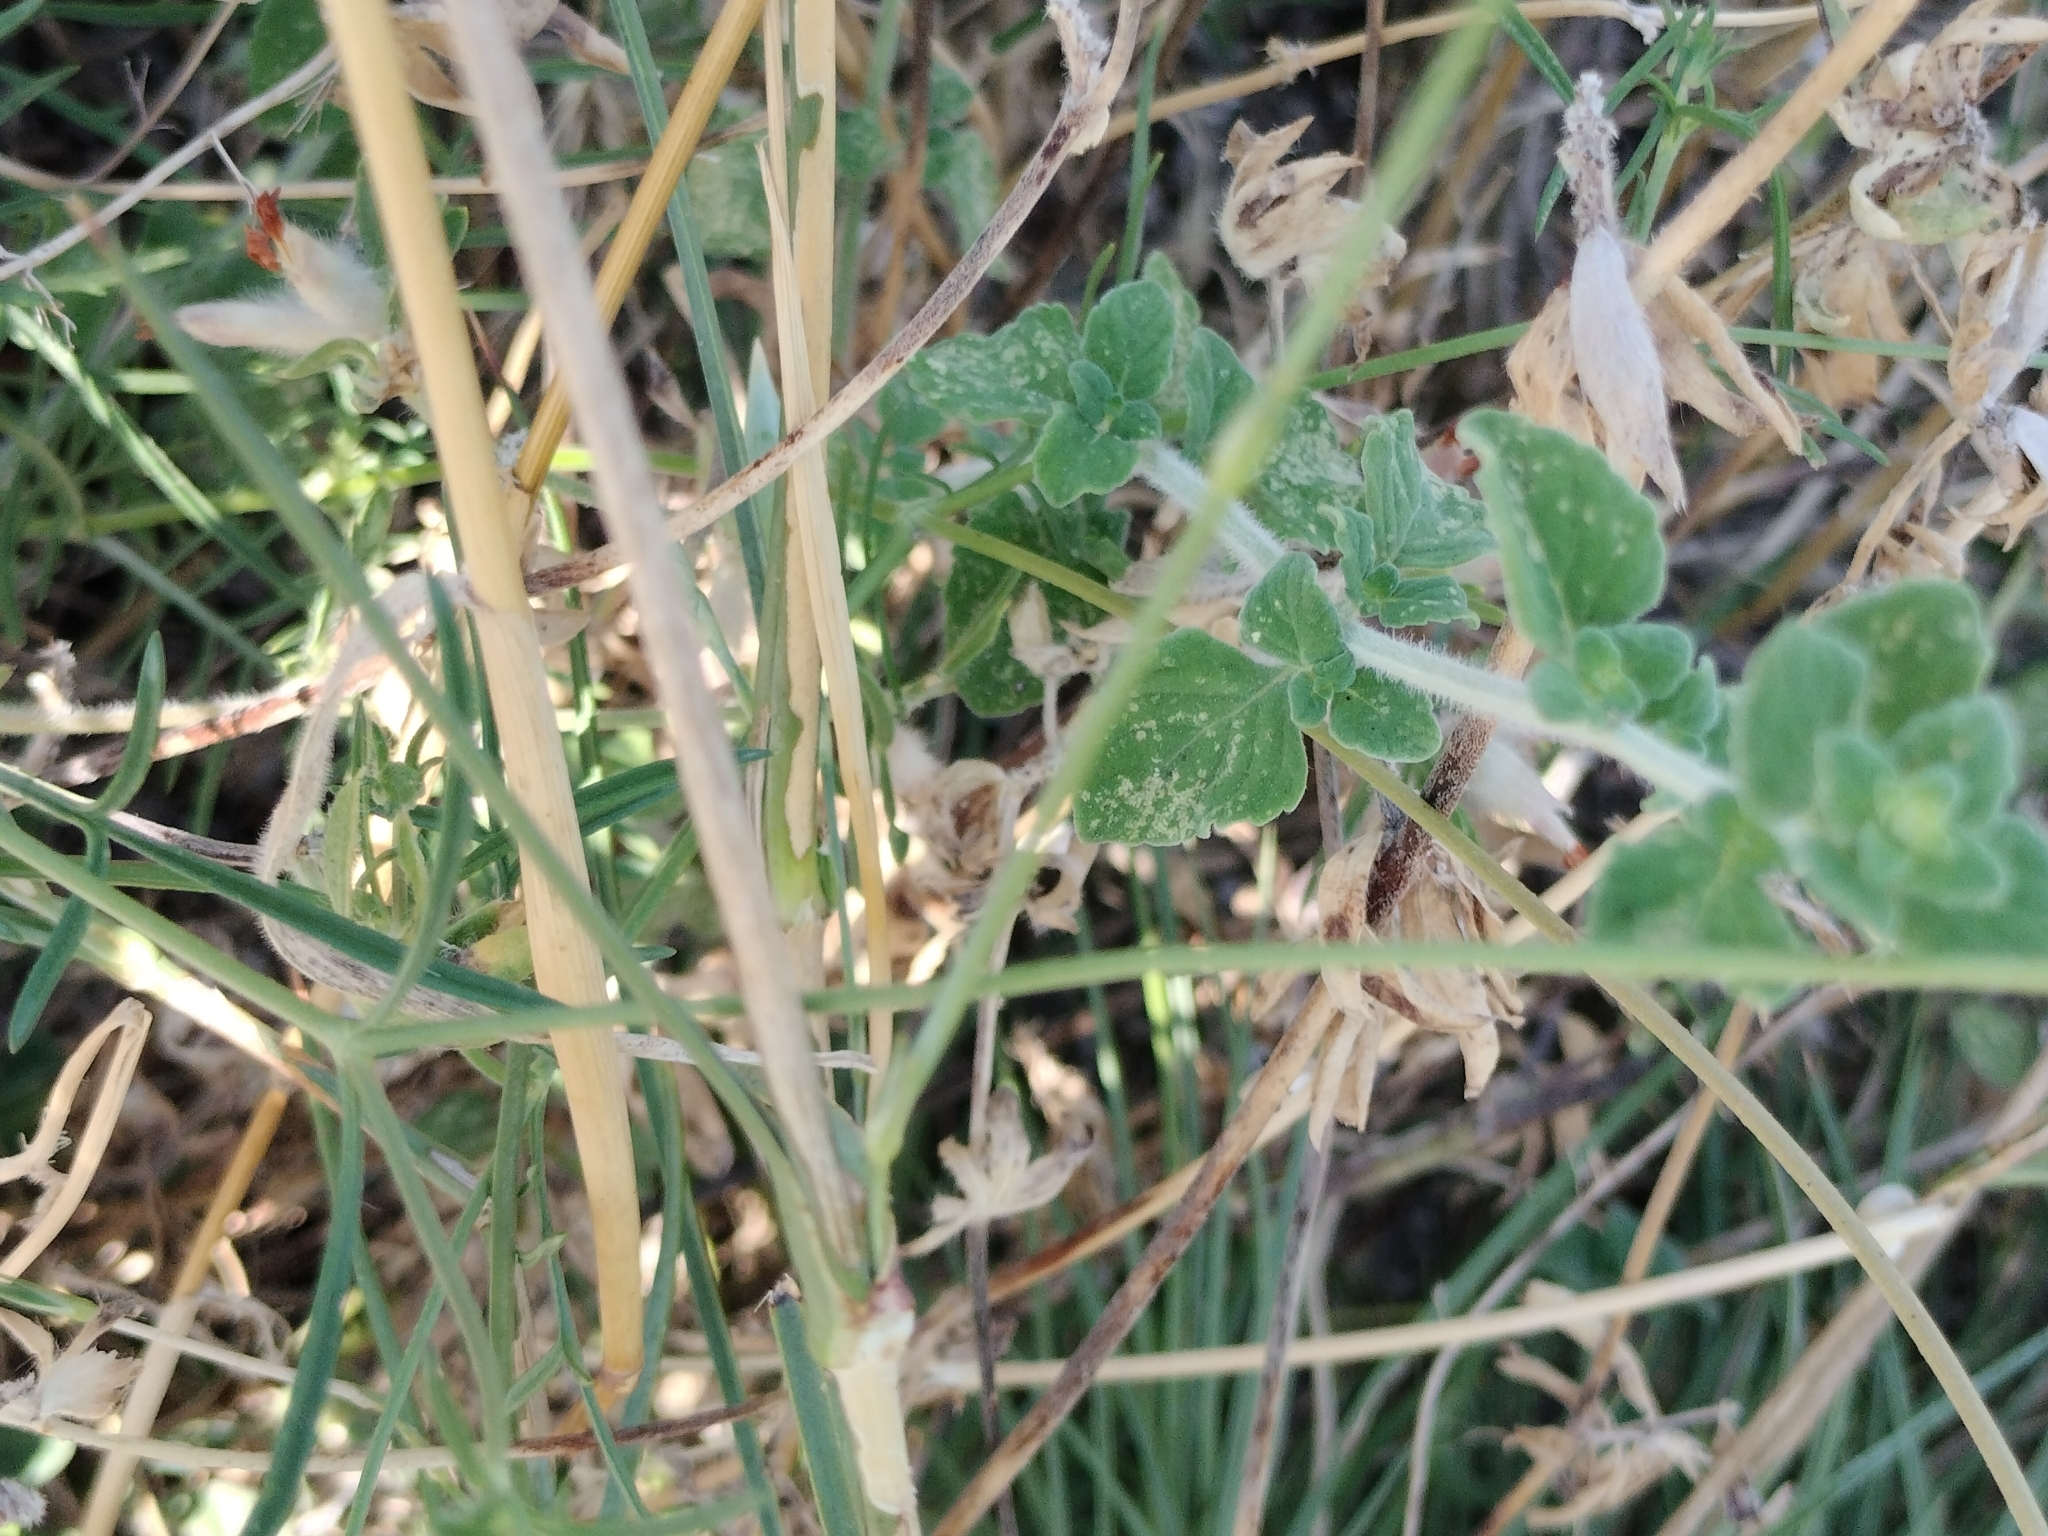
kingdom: Plantae
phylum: Tracheophyta
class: Magnoliopsida
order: Caryophyllales
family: Caryophyllaceae
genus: Dianthus
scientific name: Dianthus tarentinus
